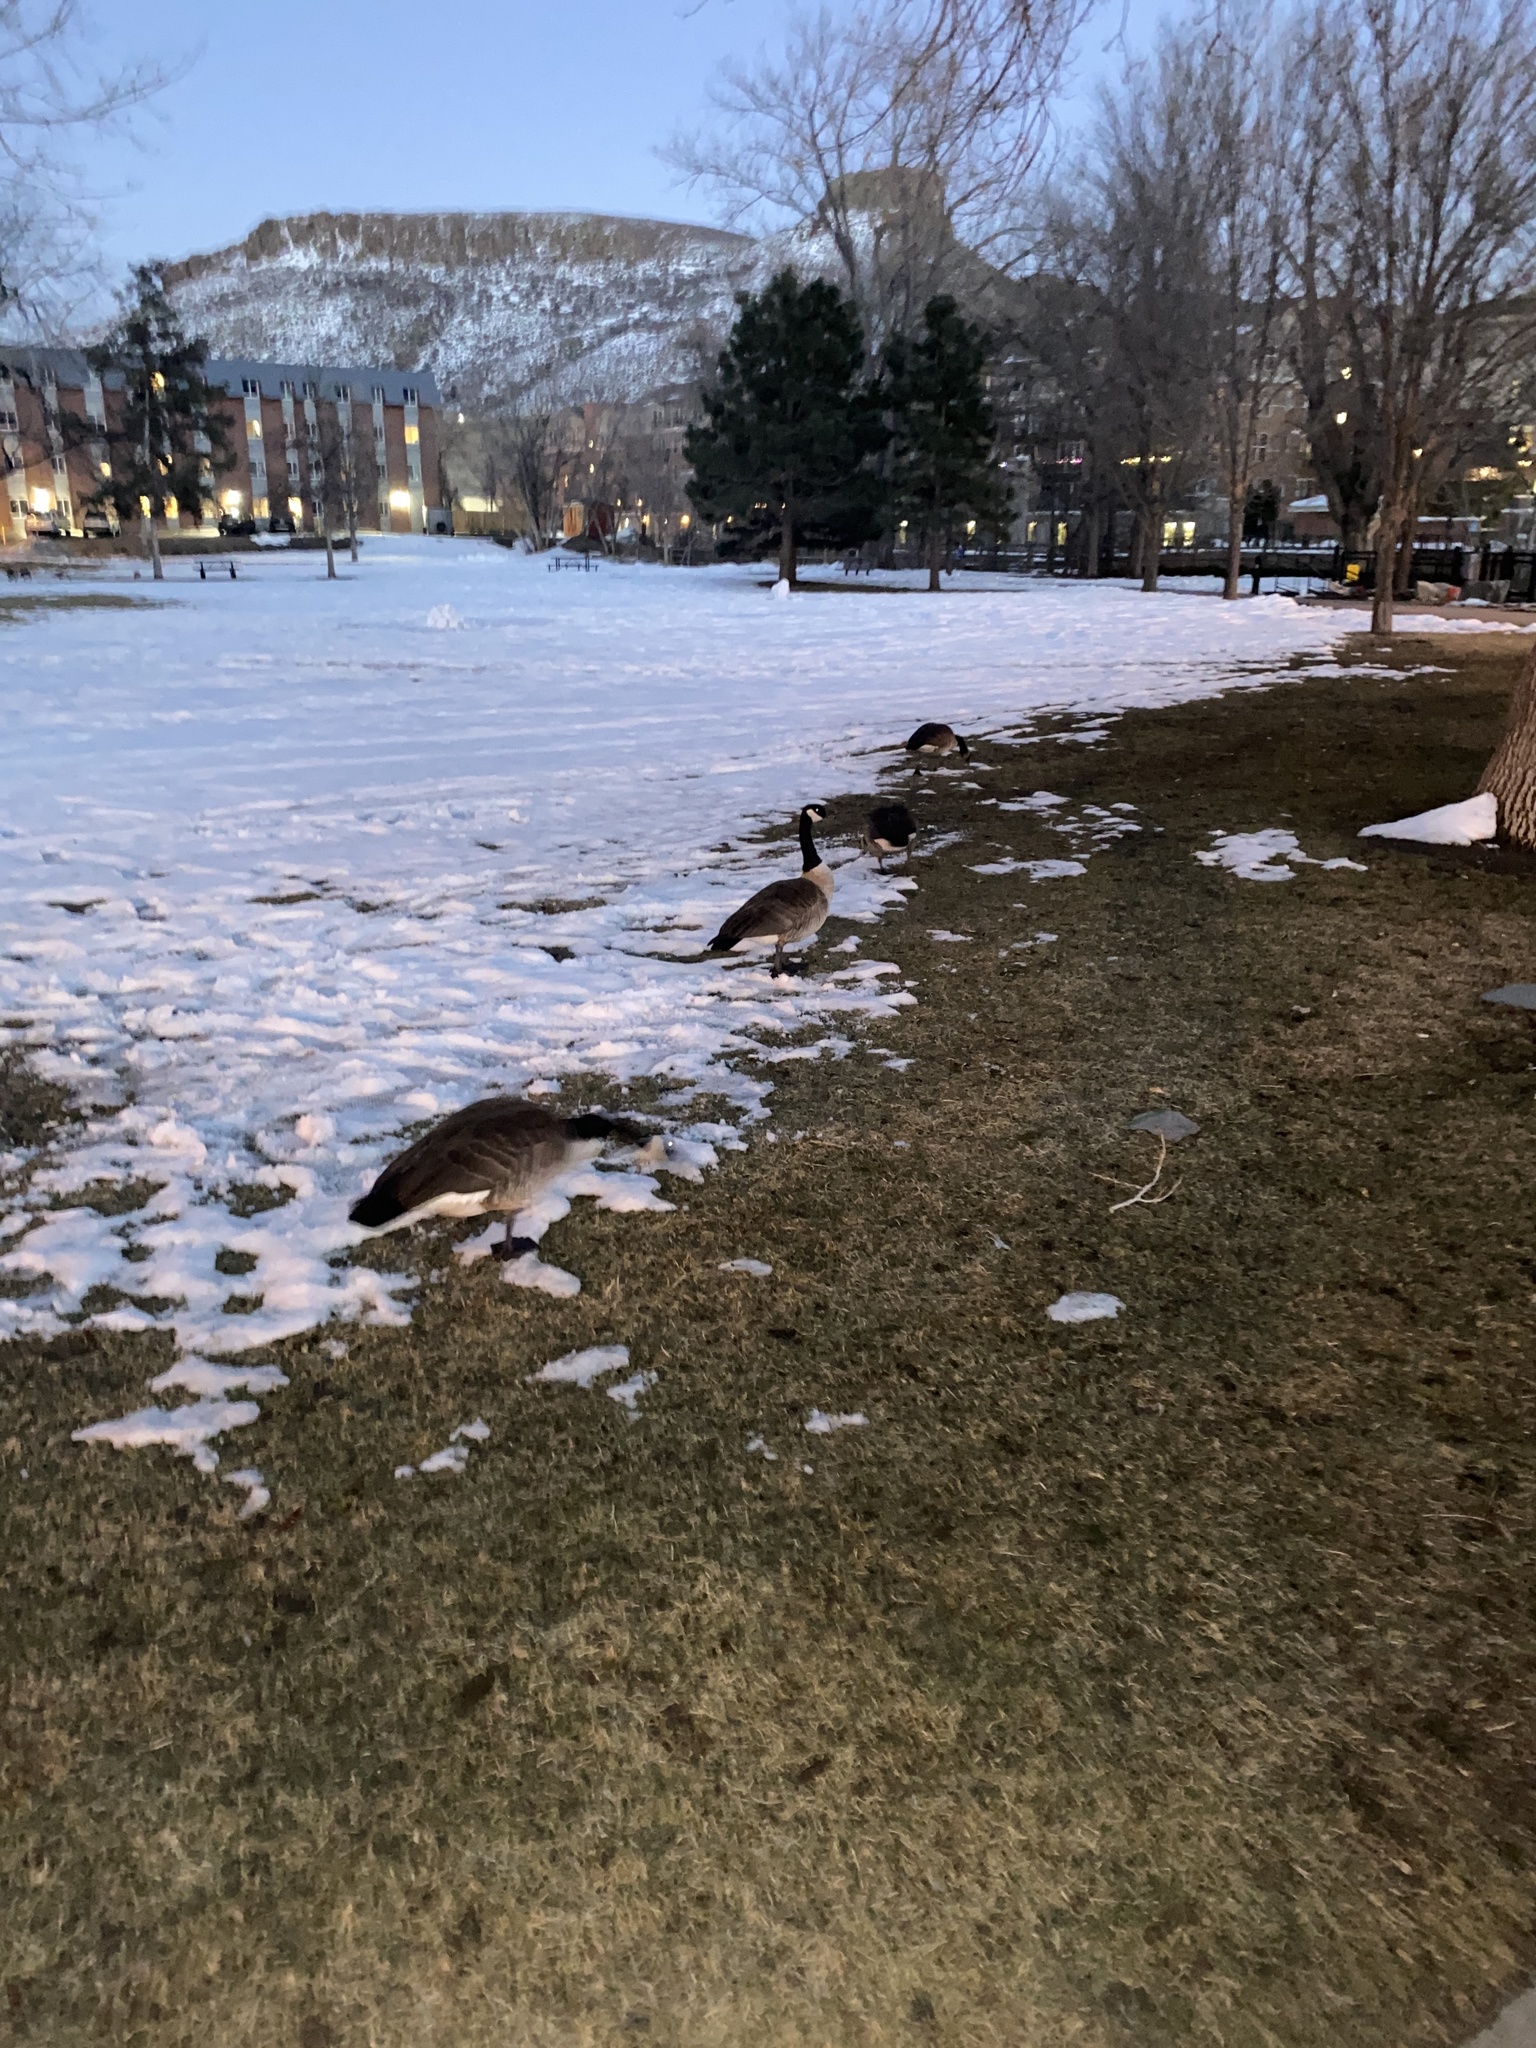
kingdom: Animalia
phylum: Chordata
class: Aves
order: Anseriformes
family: Anatidae
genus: Branta
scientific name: Branta canadensis
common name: Canada goose
